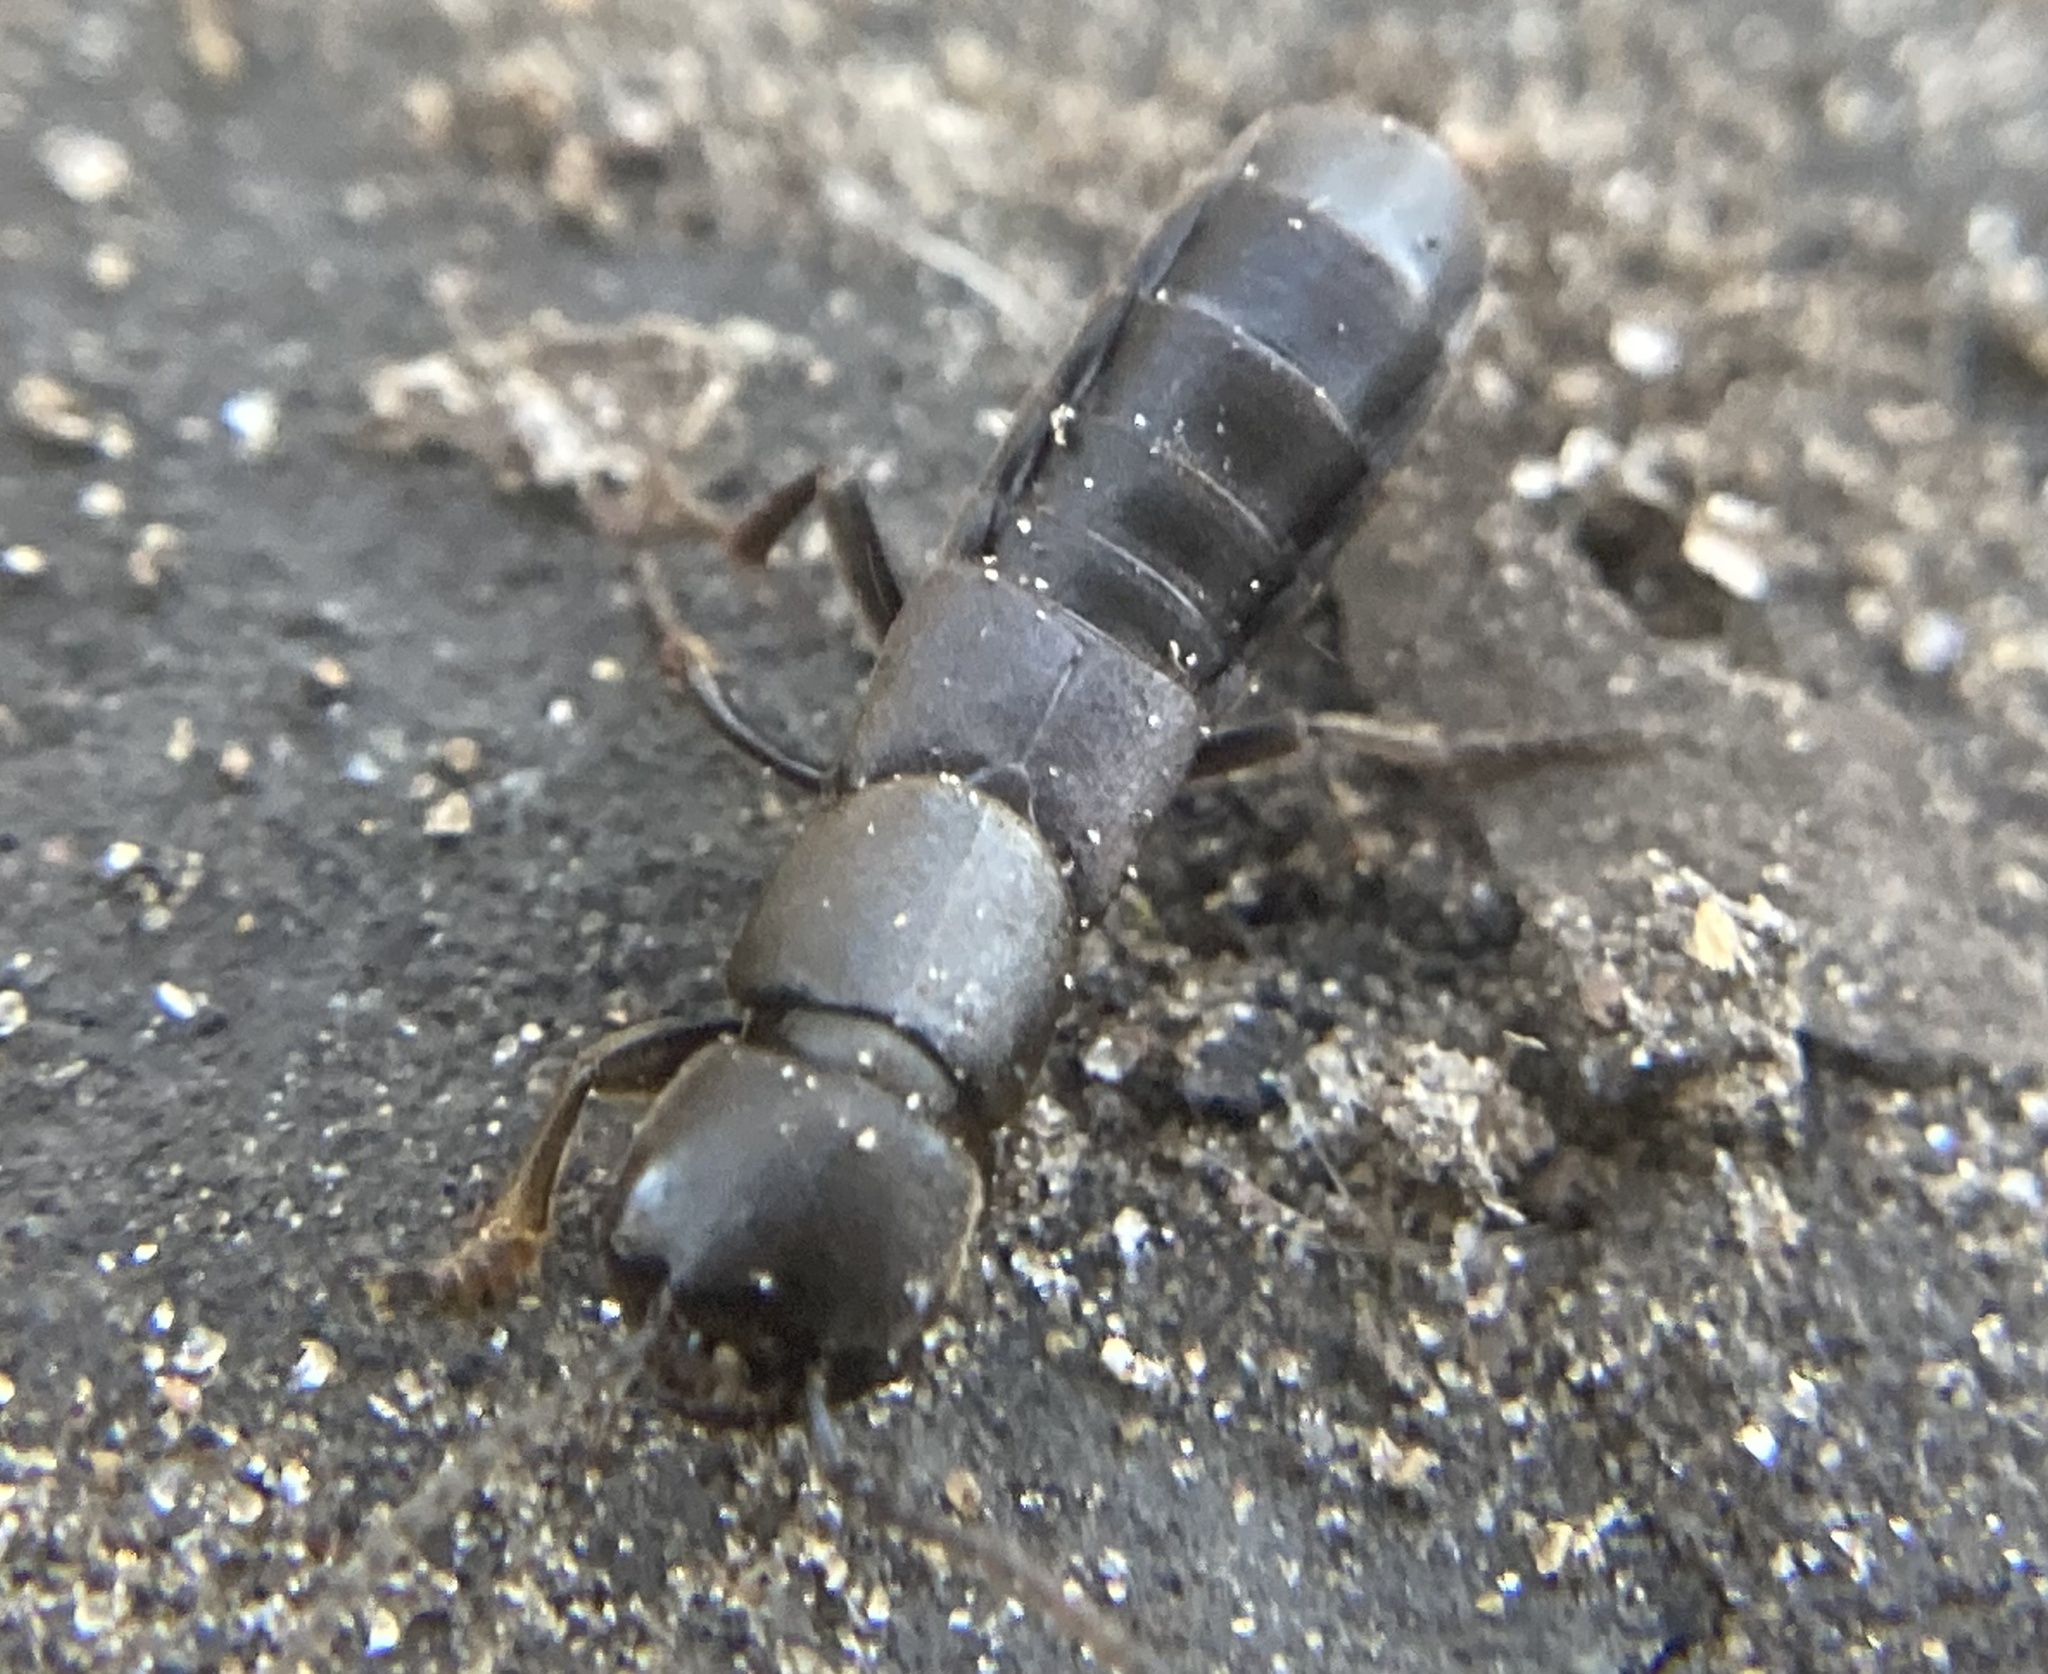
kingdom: Animalia
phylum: Arthropoda
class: Insecta
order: Coleoptera
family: Staphylinidae
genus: Ocypus
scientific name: Ocypus nitens
